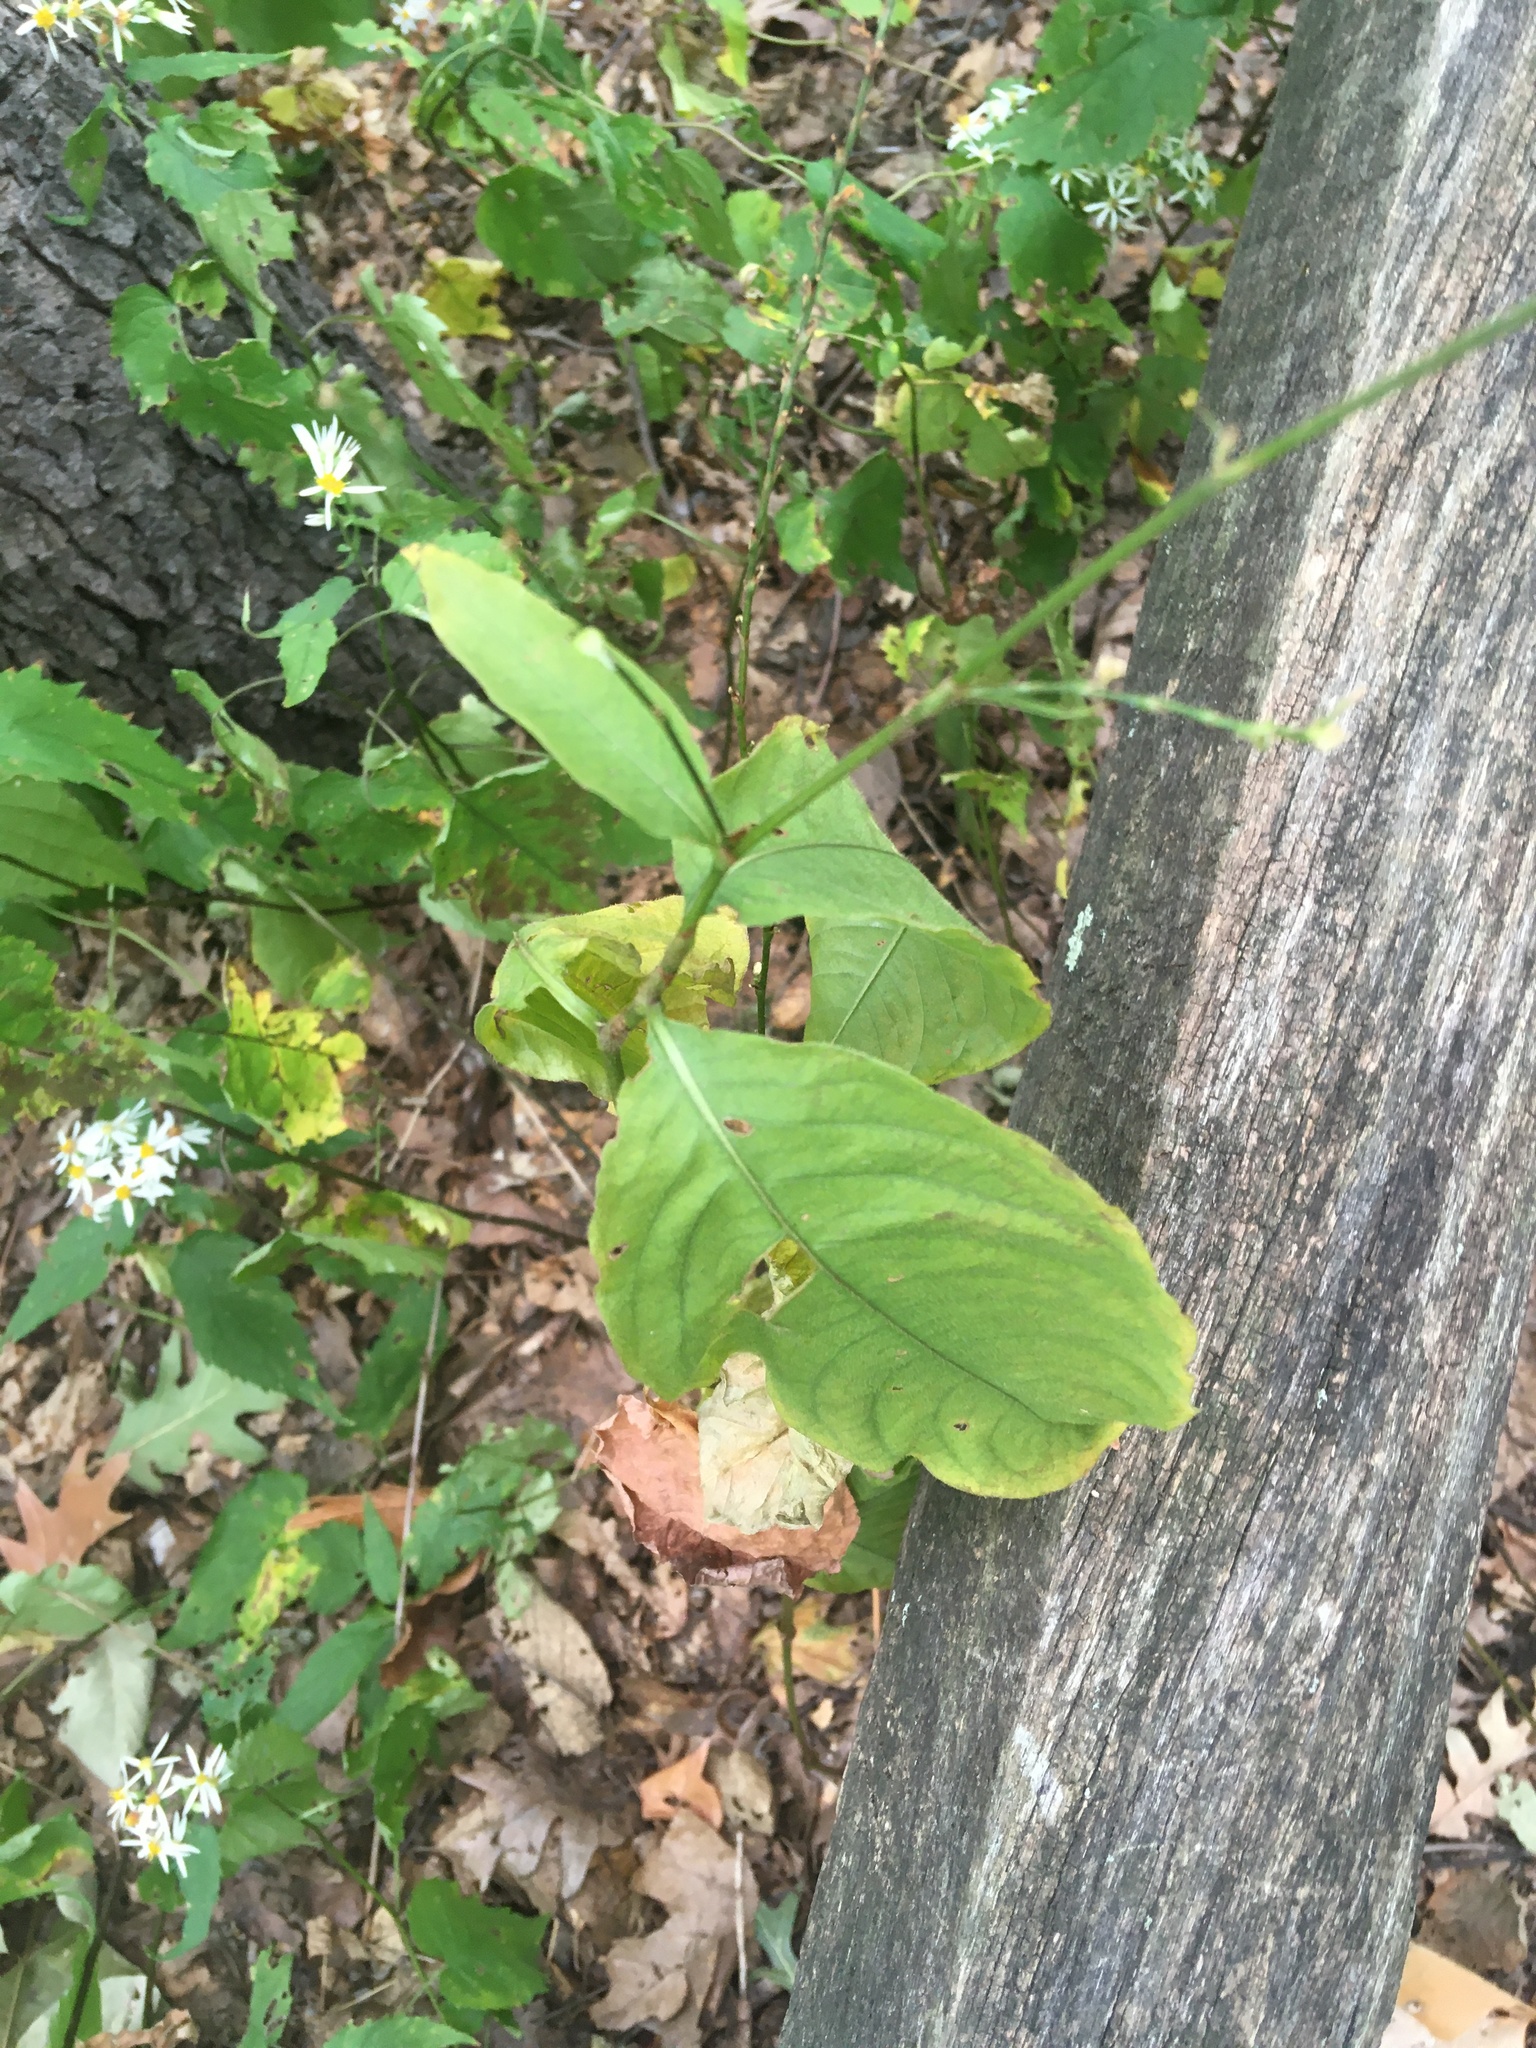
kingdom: Plantae
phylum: Tracheophyta
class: Magnoliopsida
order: Caryophyllales
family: Polygonaceae
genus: Persicaria
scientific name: Persicaria virginiana
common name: Jumpseed
